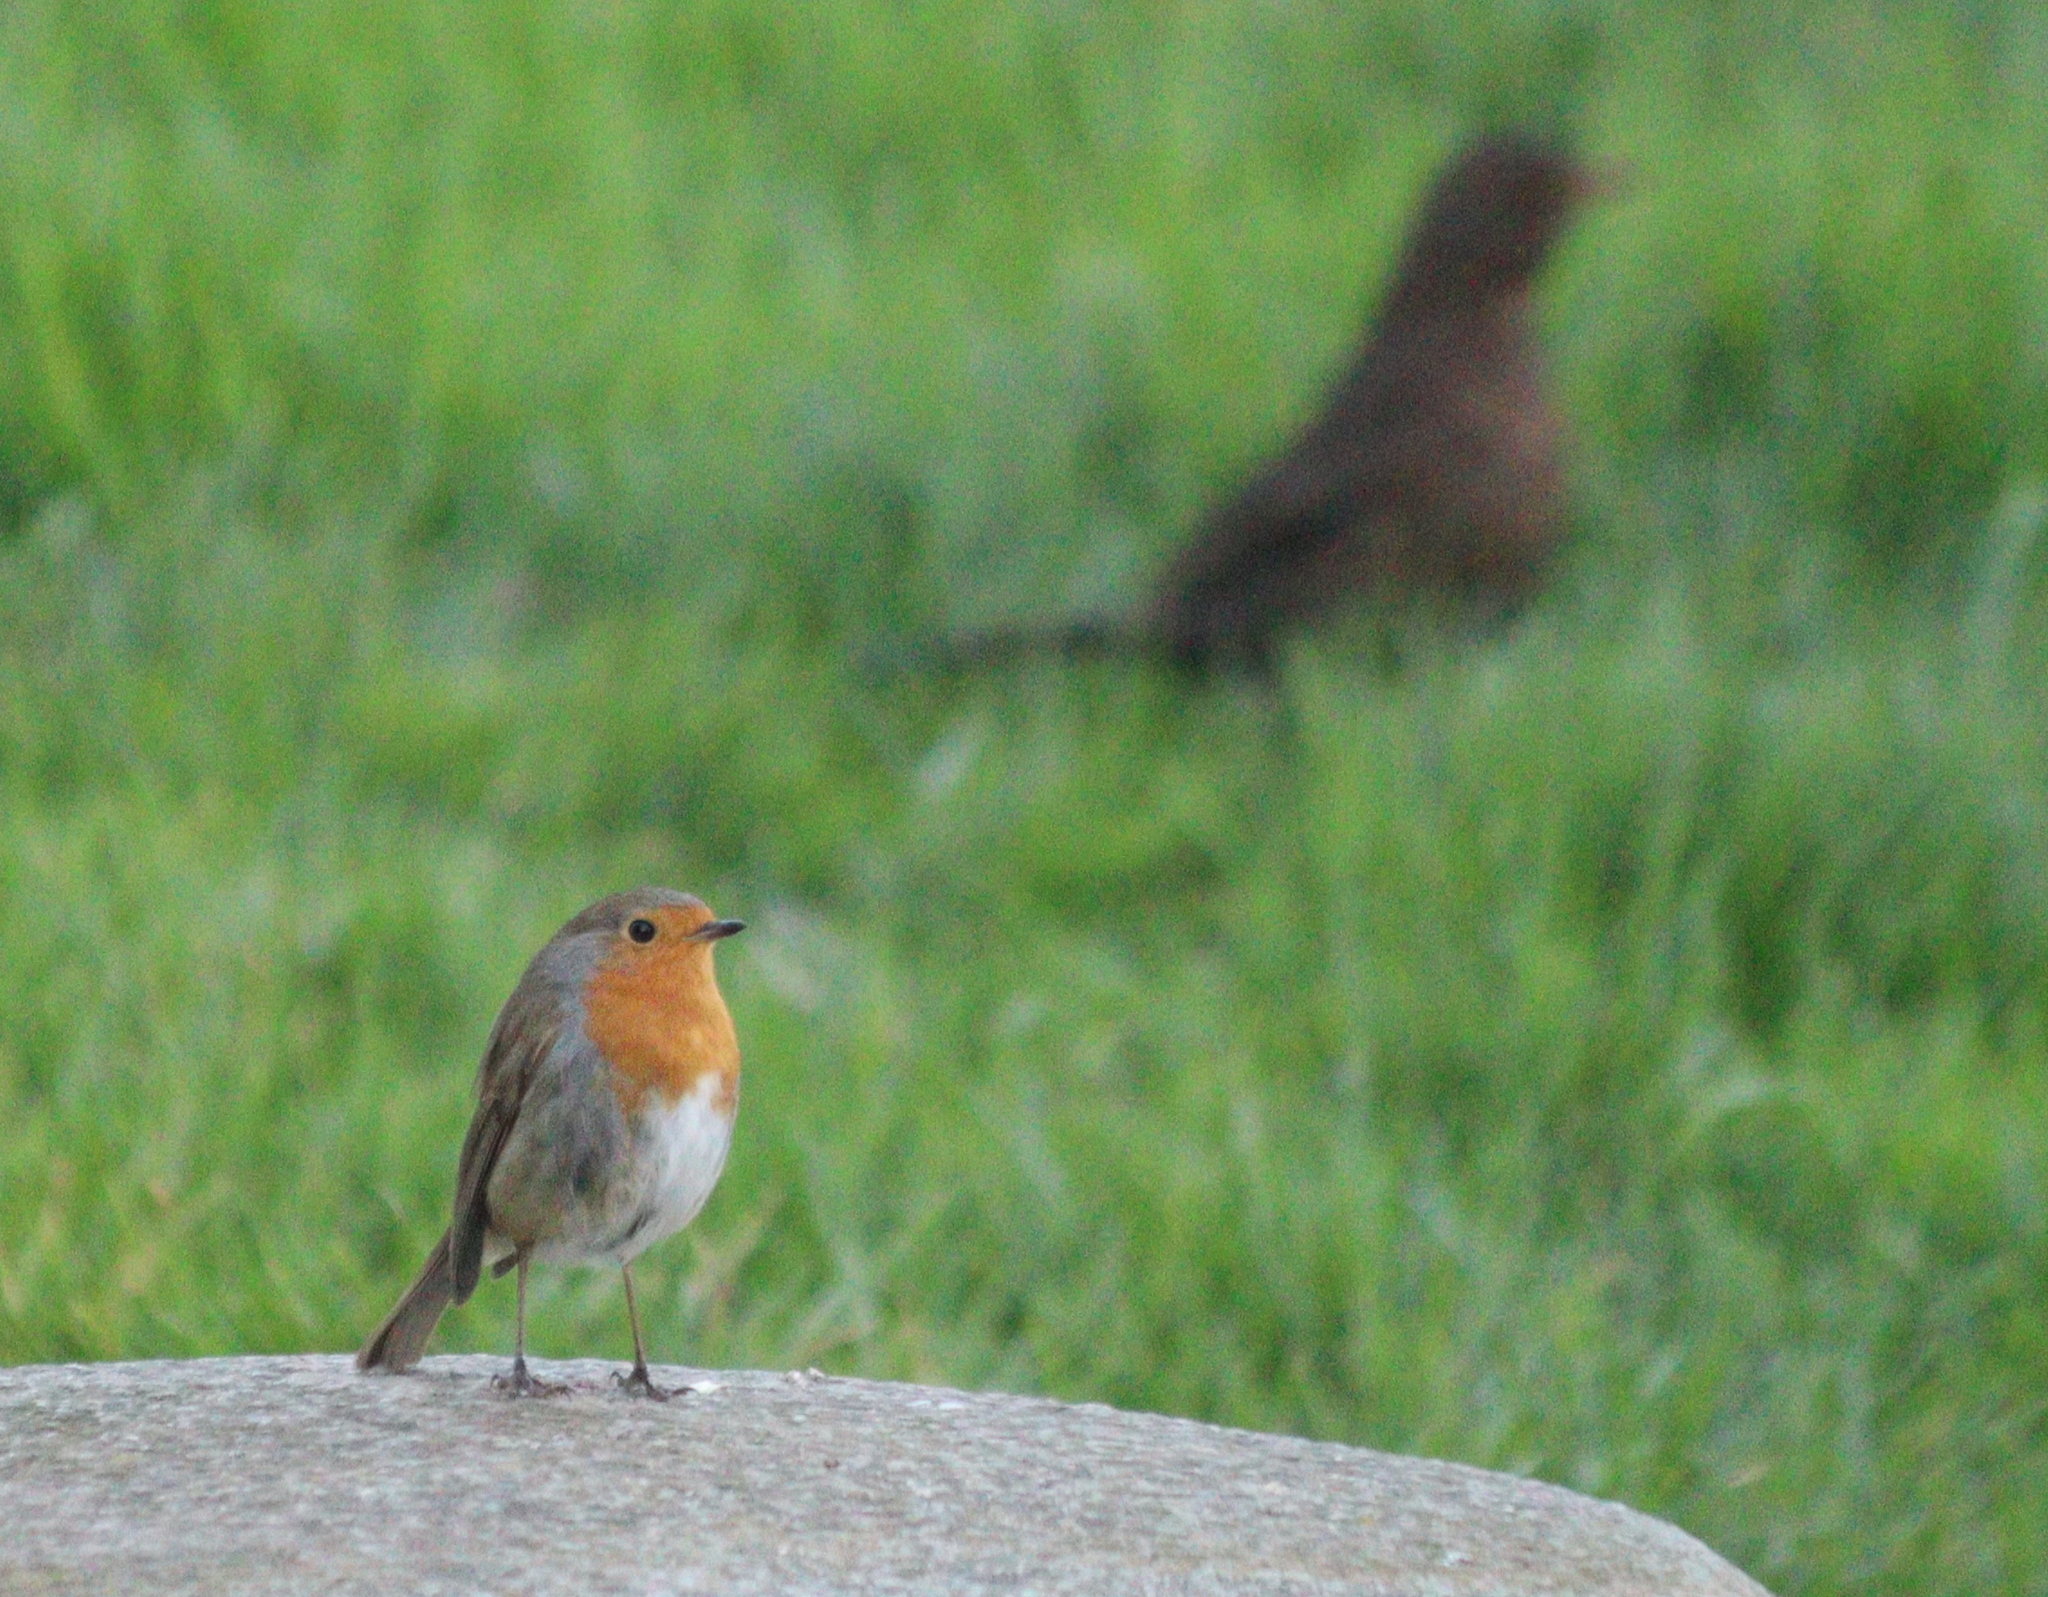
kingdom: Animalia
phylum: Chordata
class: Aves
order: Passeriformes
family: Muscicapidae
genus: Erithacus
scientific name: Erithacus rubecula
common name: European robin
